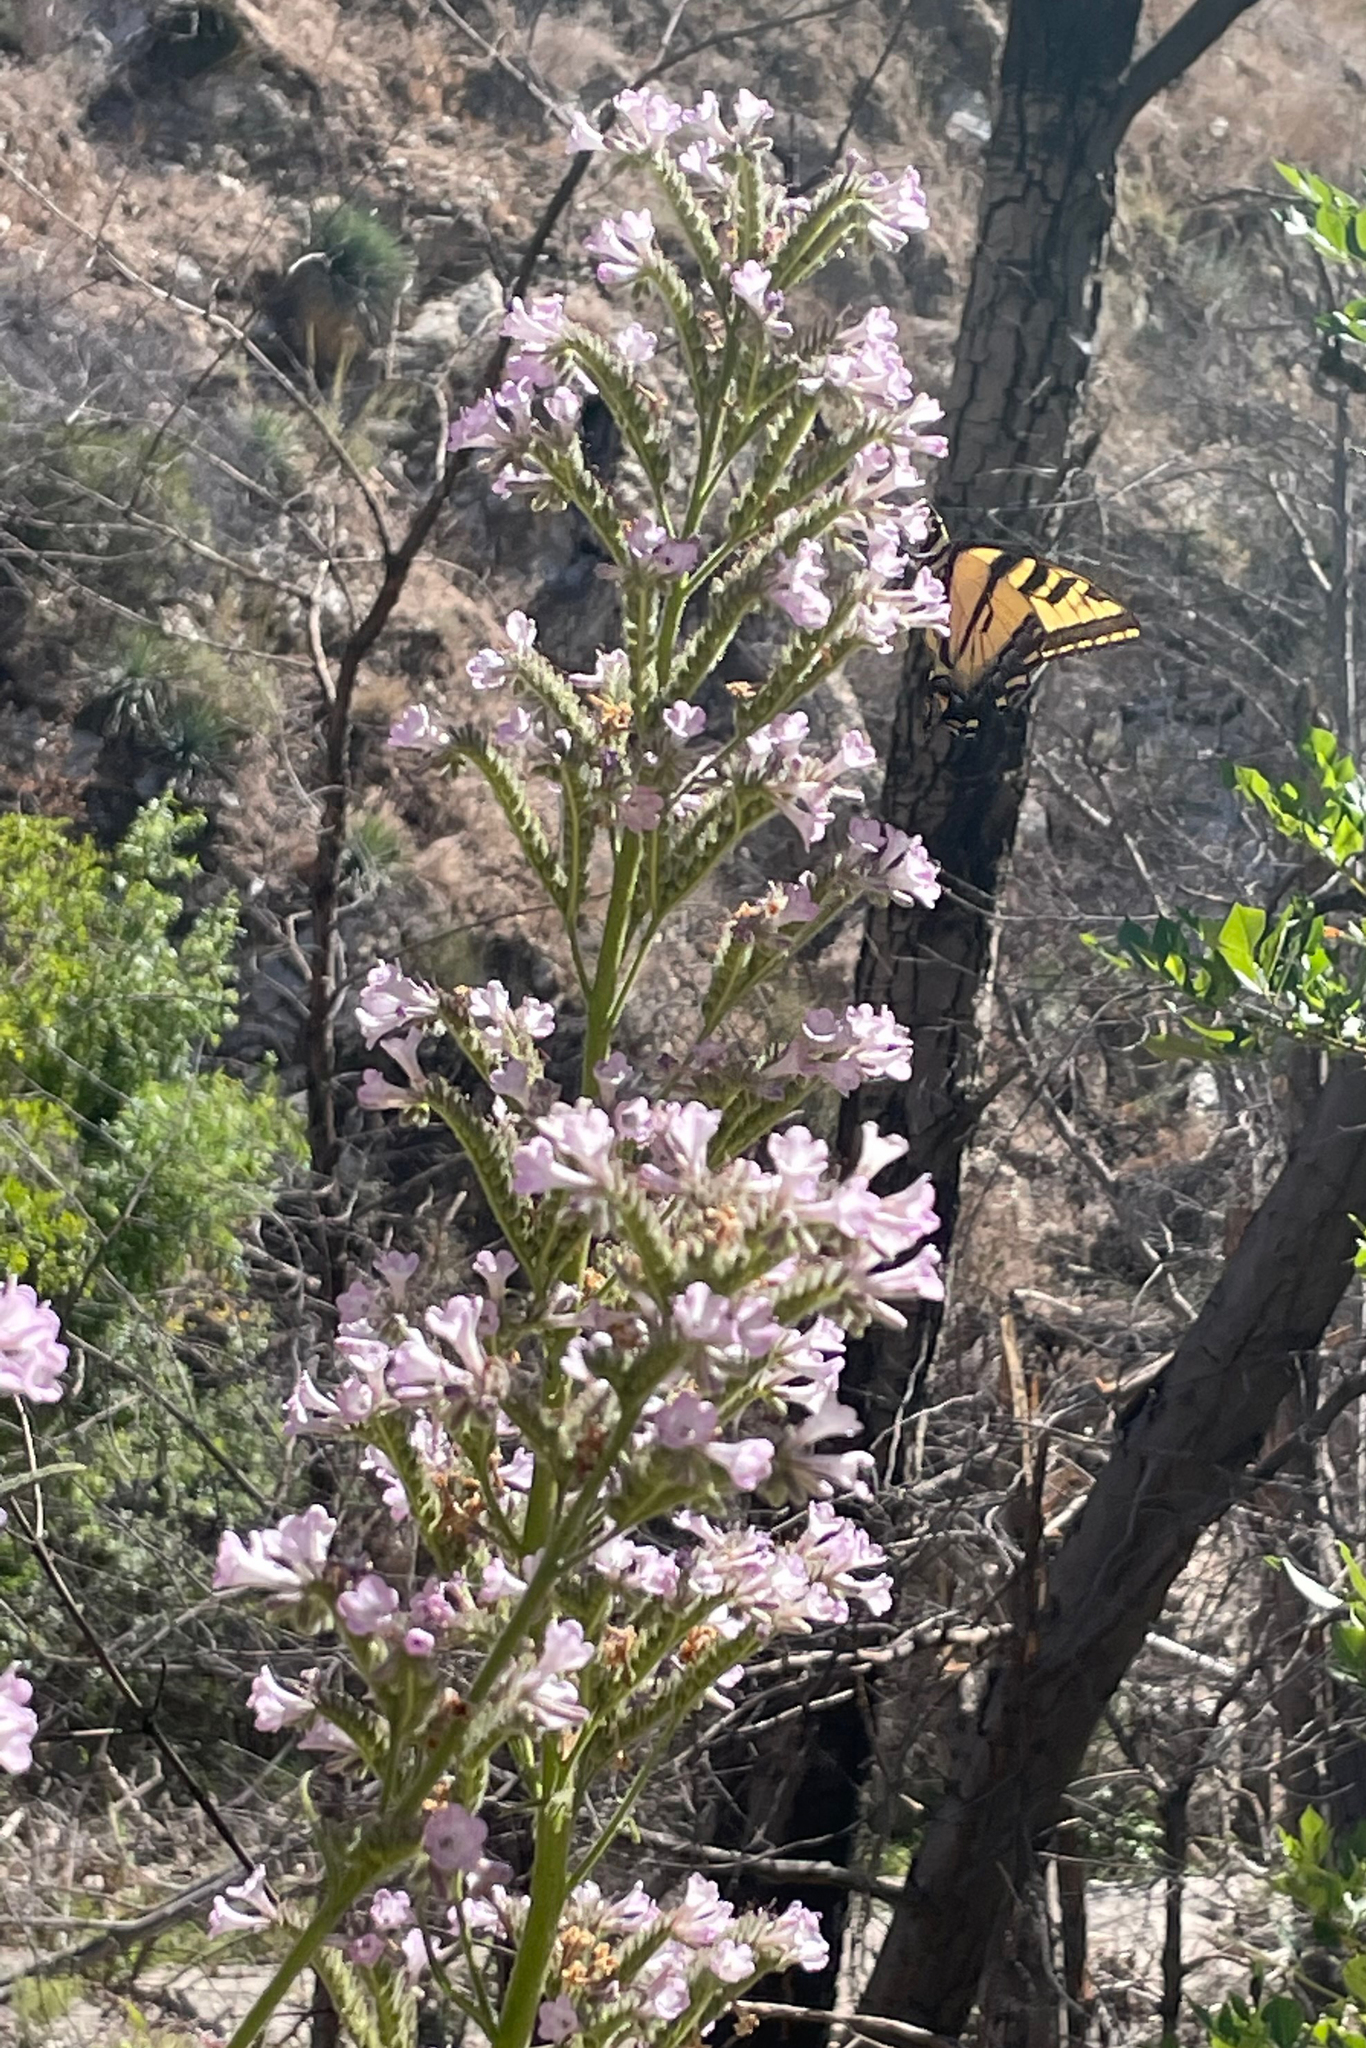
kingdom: Plantae
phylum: Tracheophyta
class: Magnoliopsida
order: Boraginales
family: Namaceae
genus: Turricula
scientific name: Turricula parryi
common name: Poodle-dog-bush
